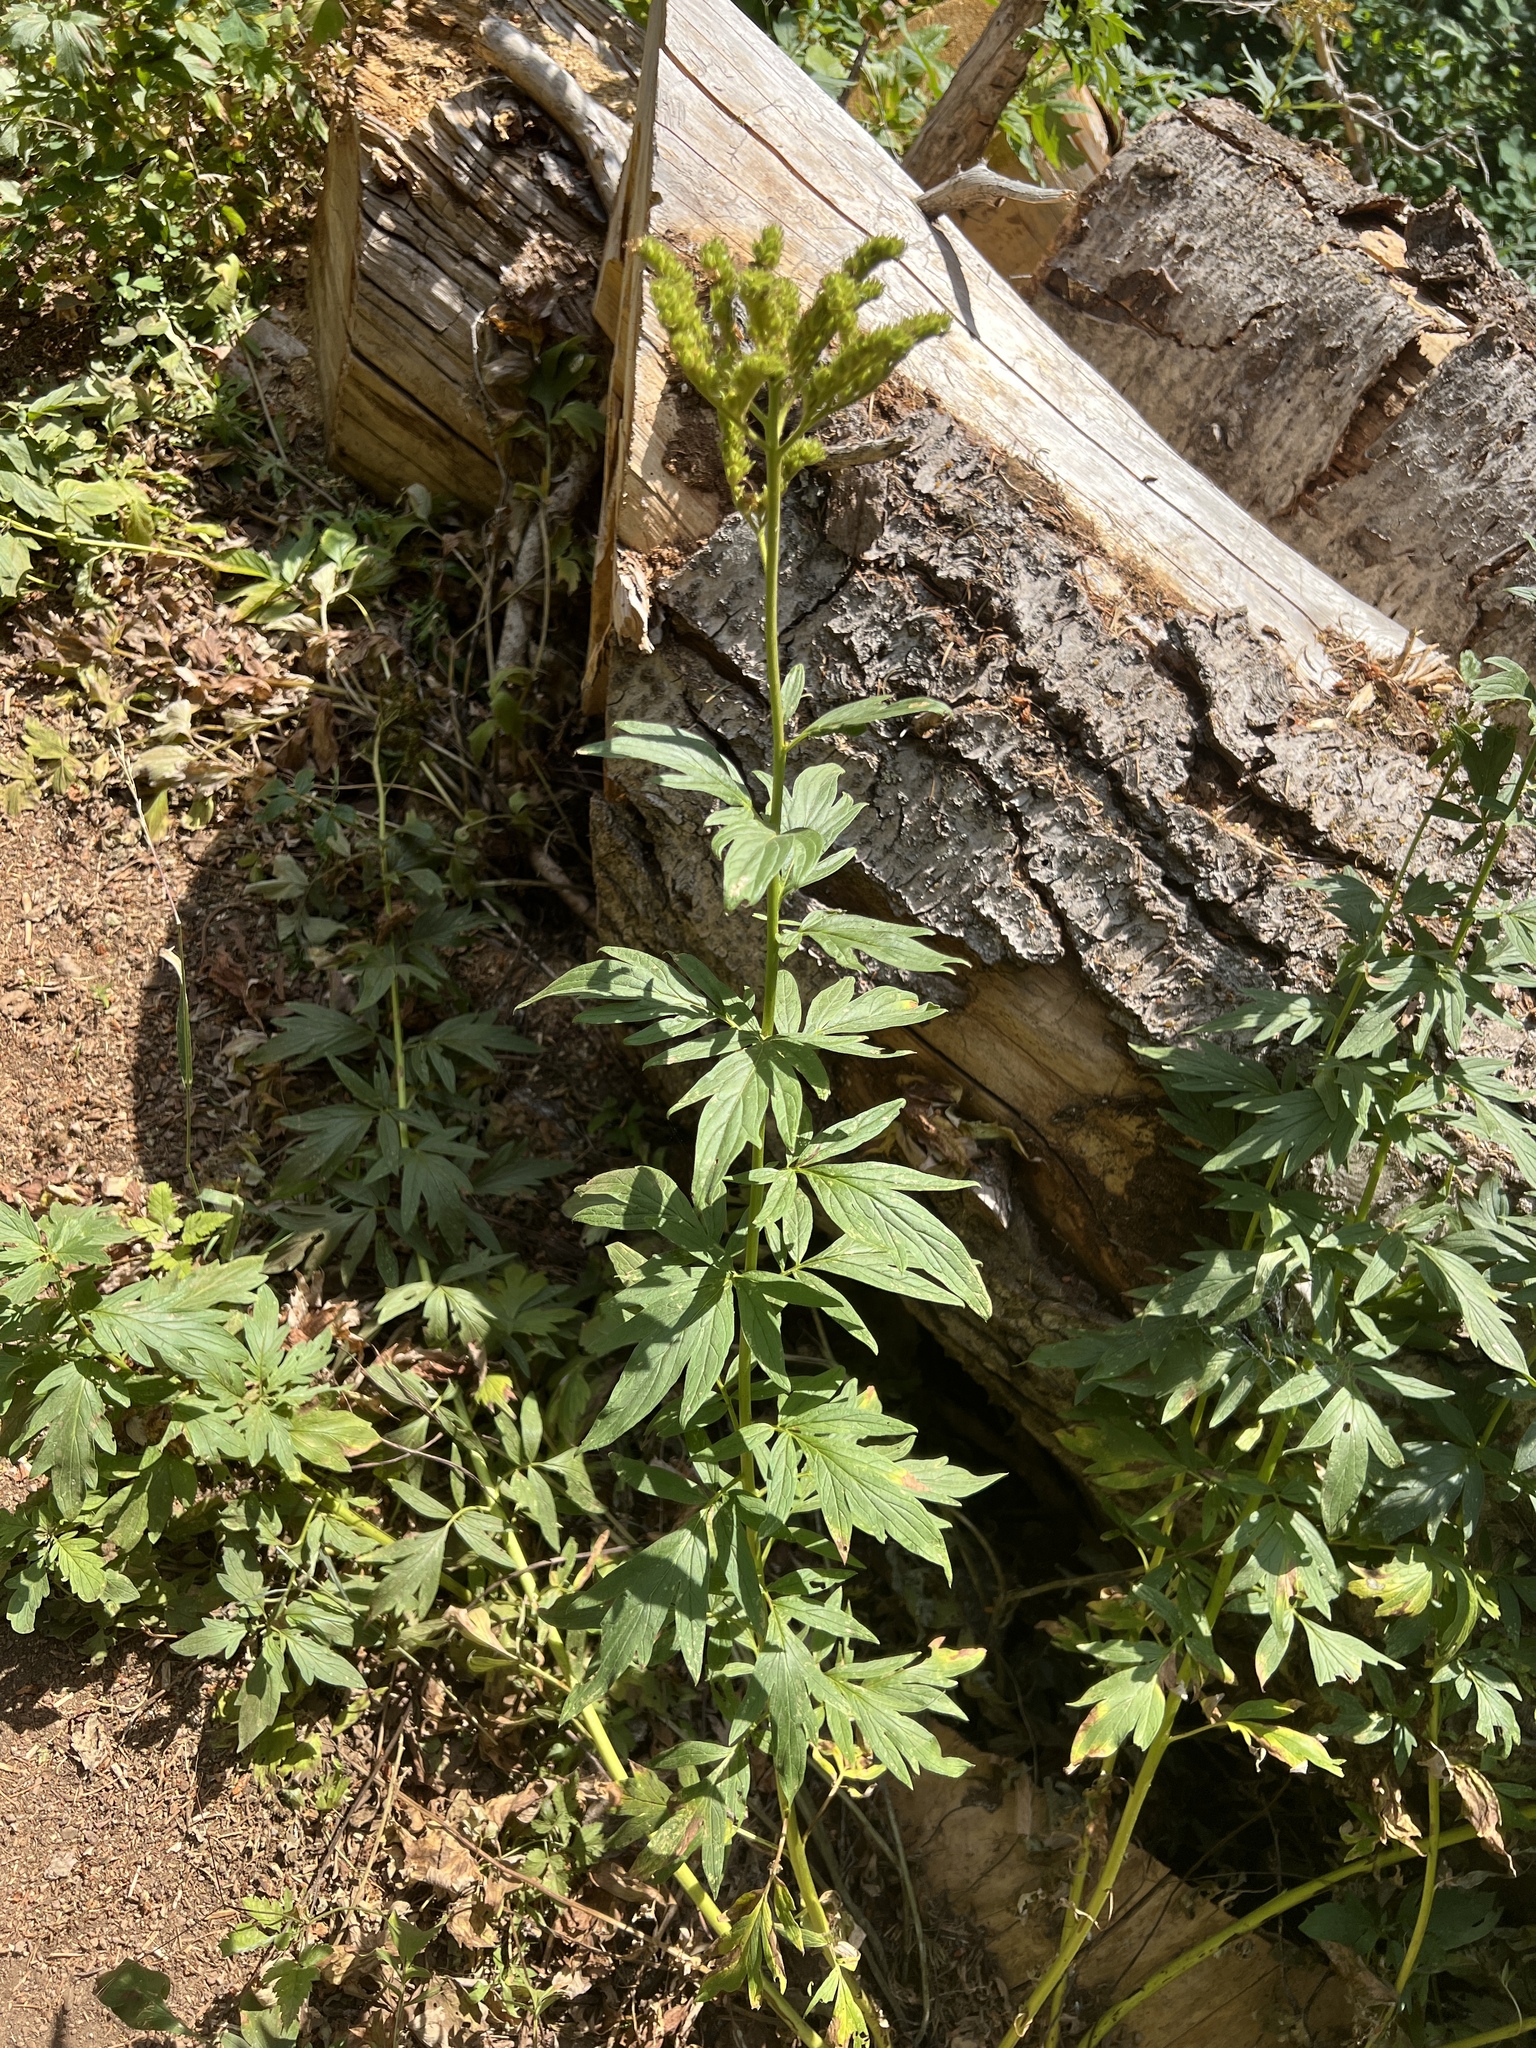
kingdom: Plantae
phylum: Tracheophyta
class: Magnoliopsida
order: Boraginales
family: Hydrophyllaceae
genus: Phacelia
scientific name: Phacelia procera
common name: Tall phacelia
